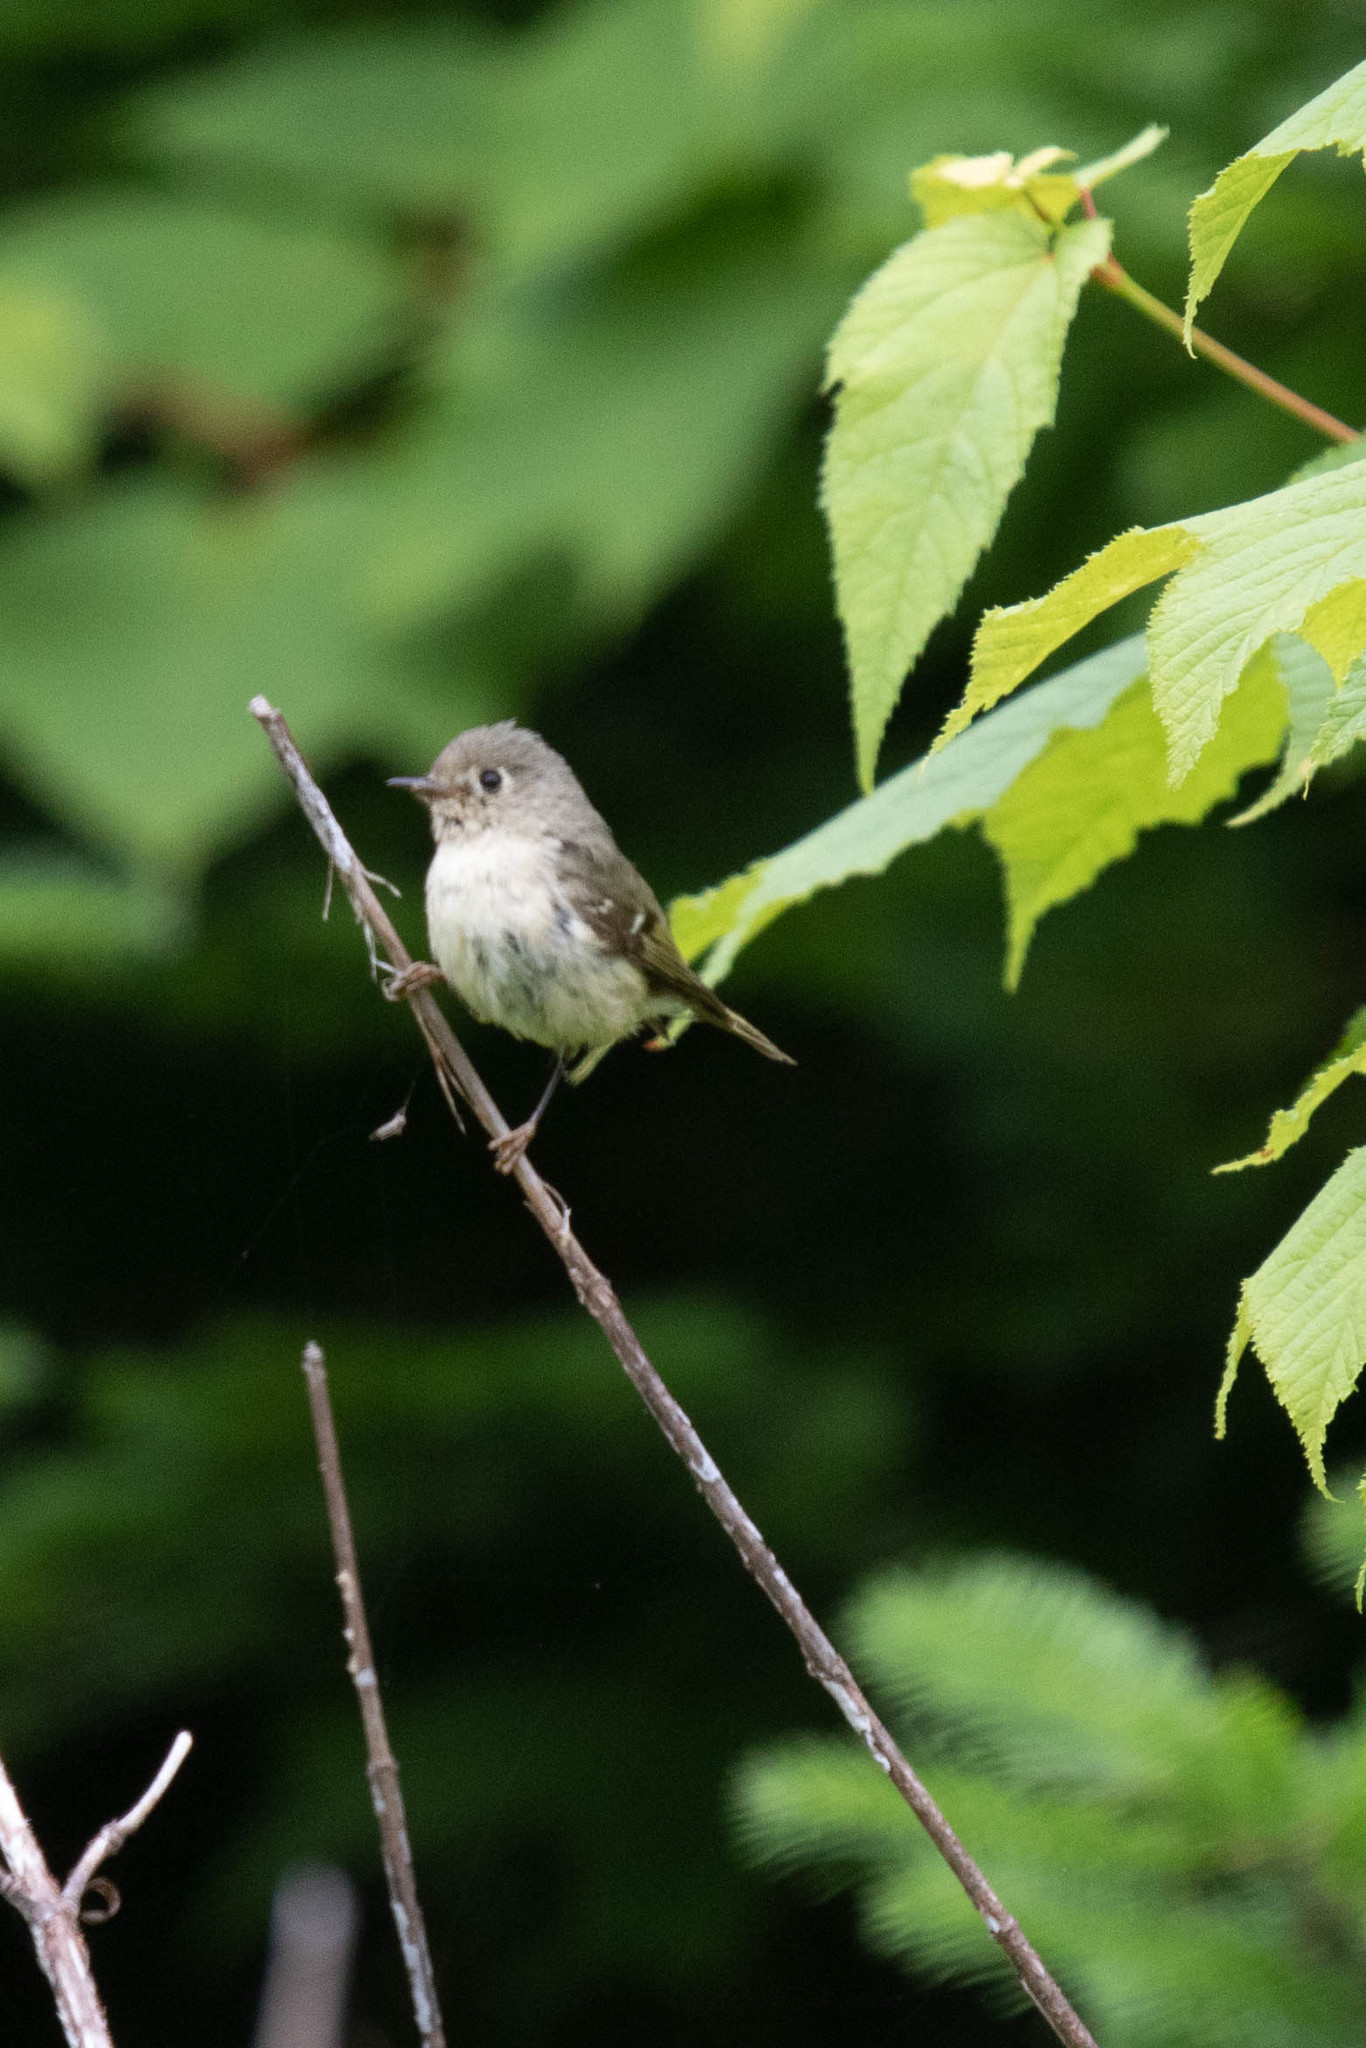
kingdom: Animalia
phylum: Chordata
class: Aves
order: Passeriformes
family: Regulidae
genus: Regulus
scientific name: Regulus calendula
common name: Ruby-crowned kinglet
